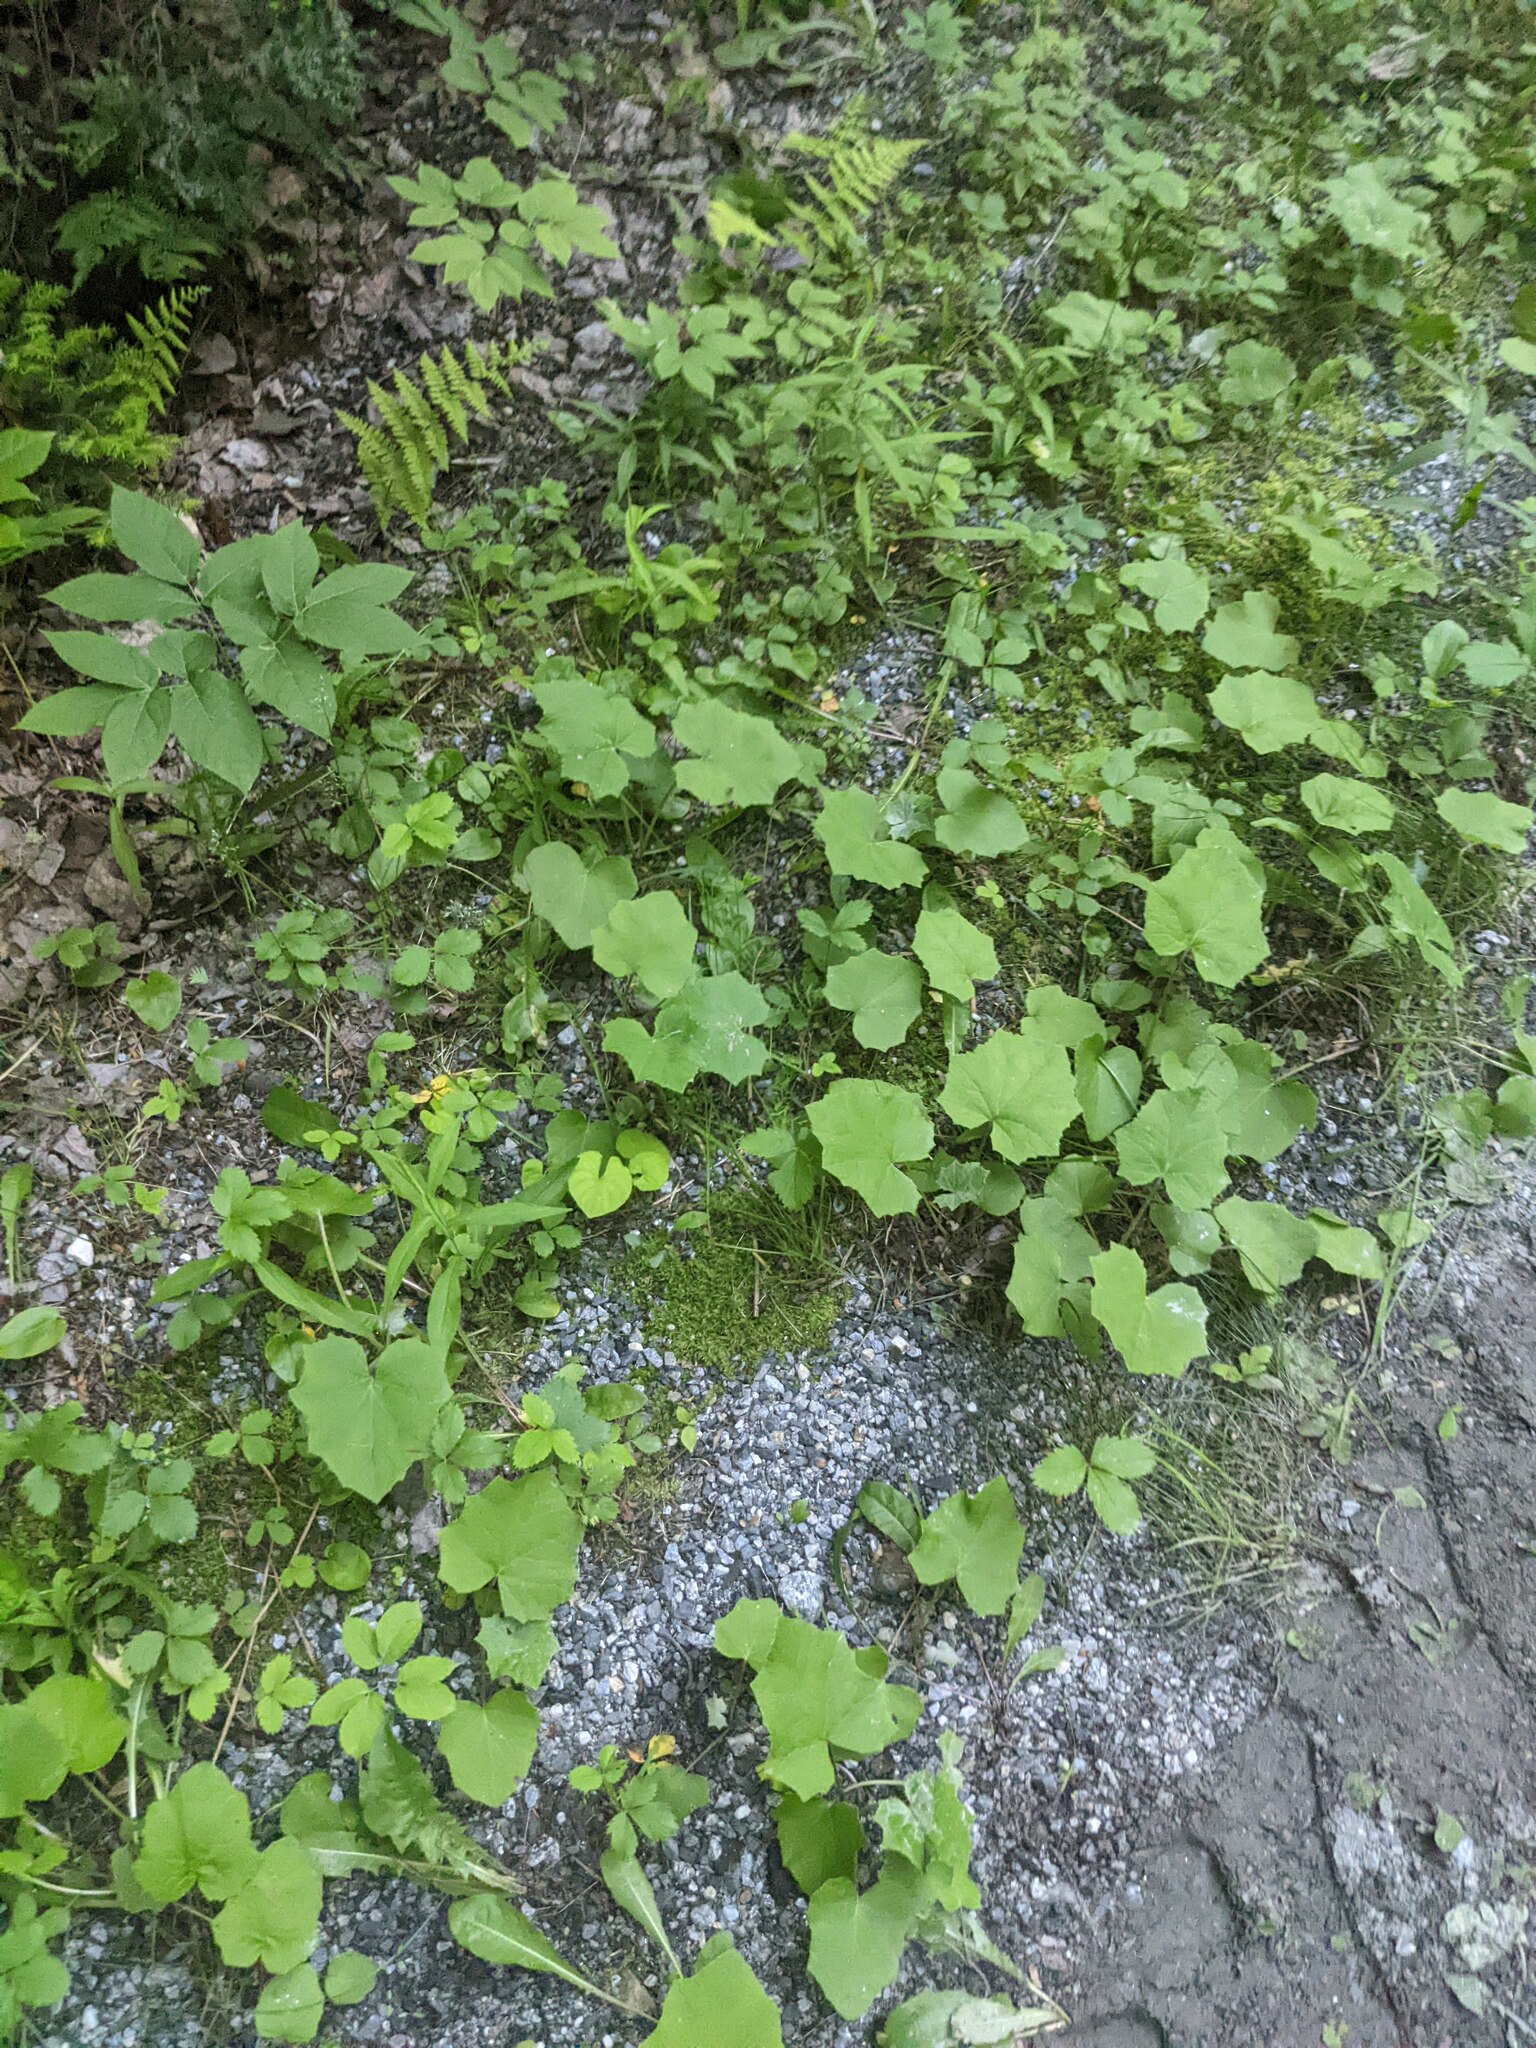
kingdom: Plantae
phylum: Tracheophyta
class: Magnoliopsida
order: Asterales
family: Asteraceae
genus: Tussilago
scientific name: Tussilago farfara
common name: Coltsfoot
